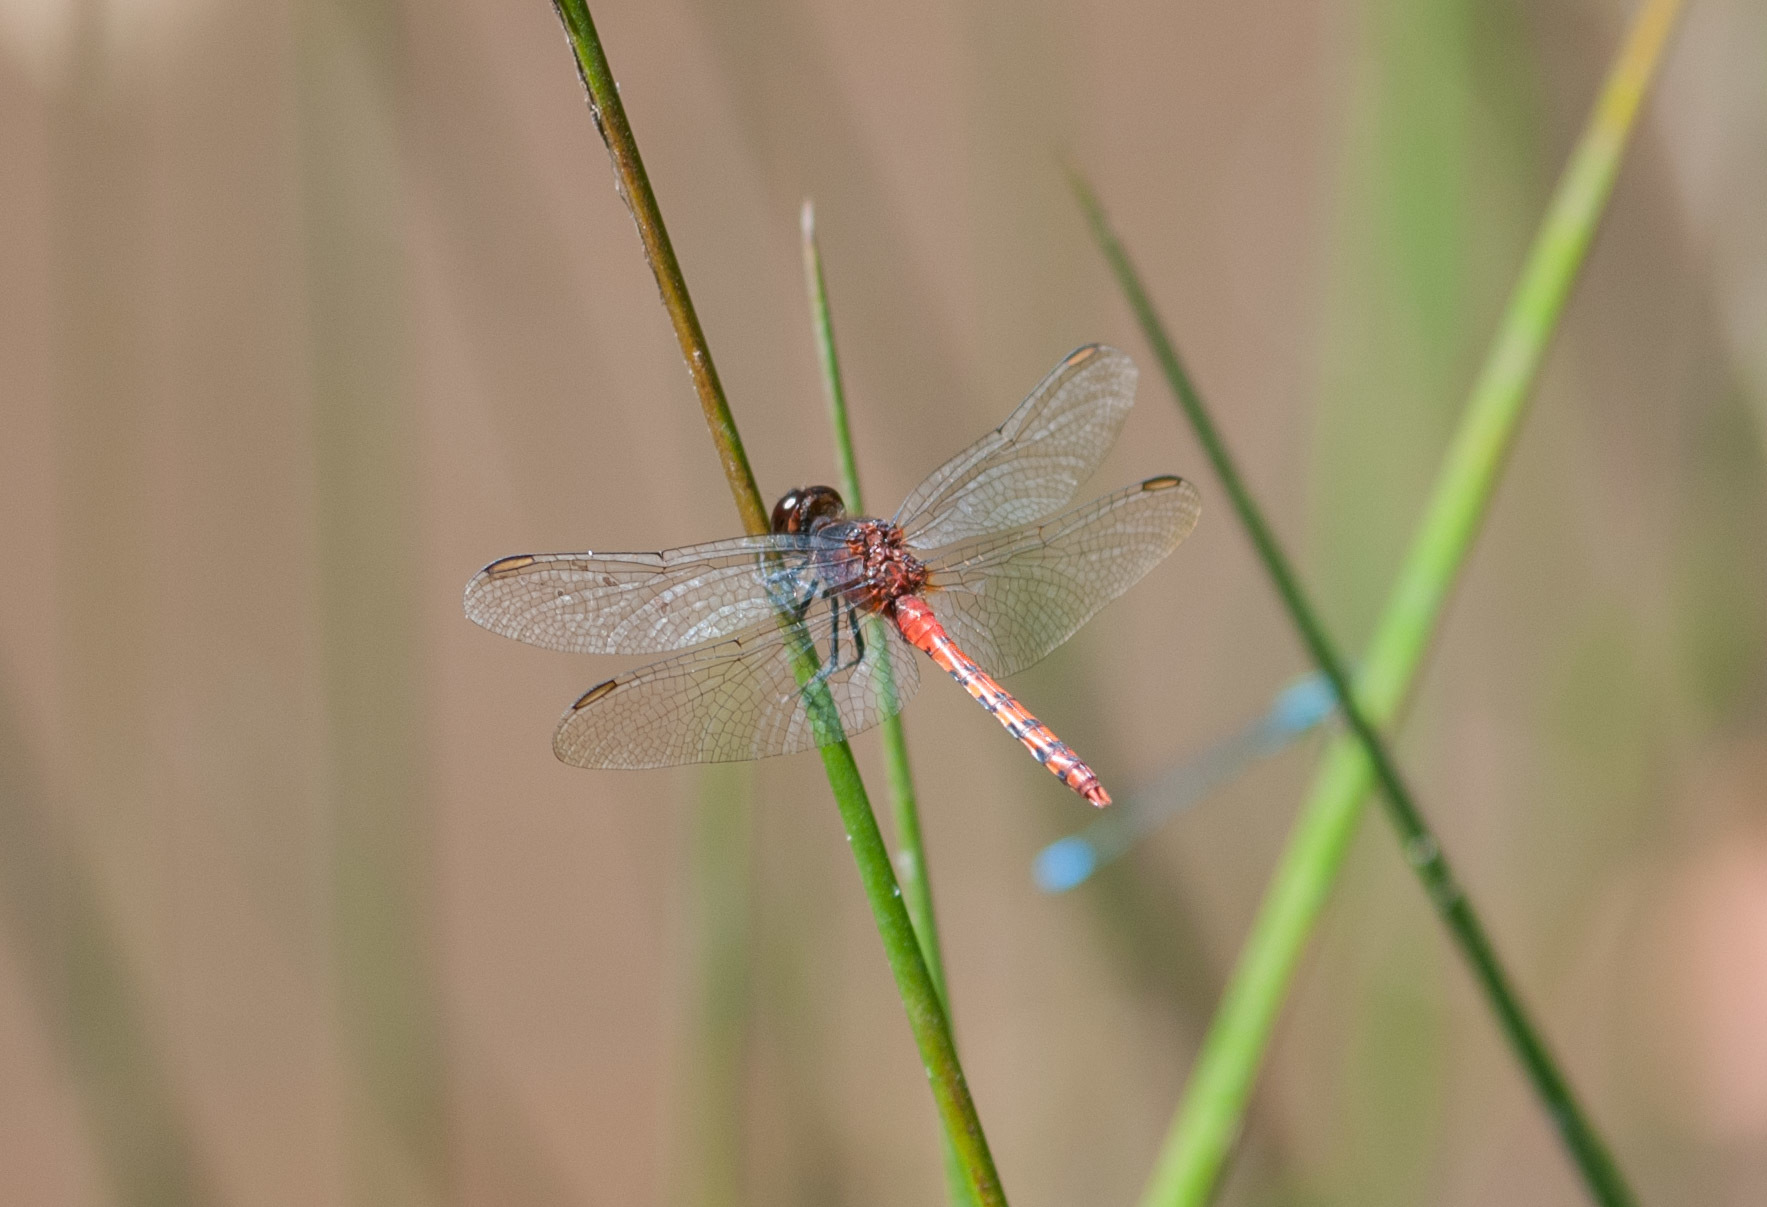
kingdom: Animalia
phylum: Arthropoda
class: Insecta
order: Odonata
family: Libellulidae
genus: Diplacodes
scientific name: Diplacodes melanopsis
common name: Black-faced percher
